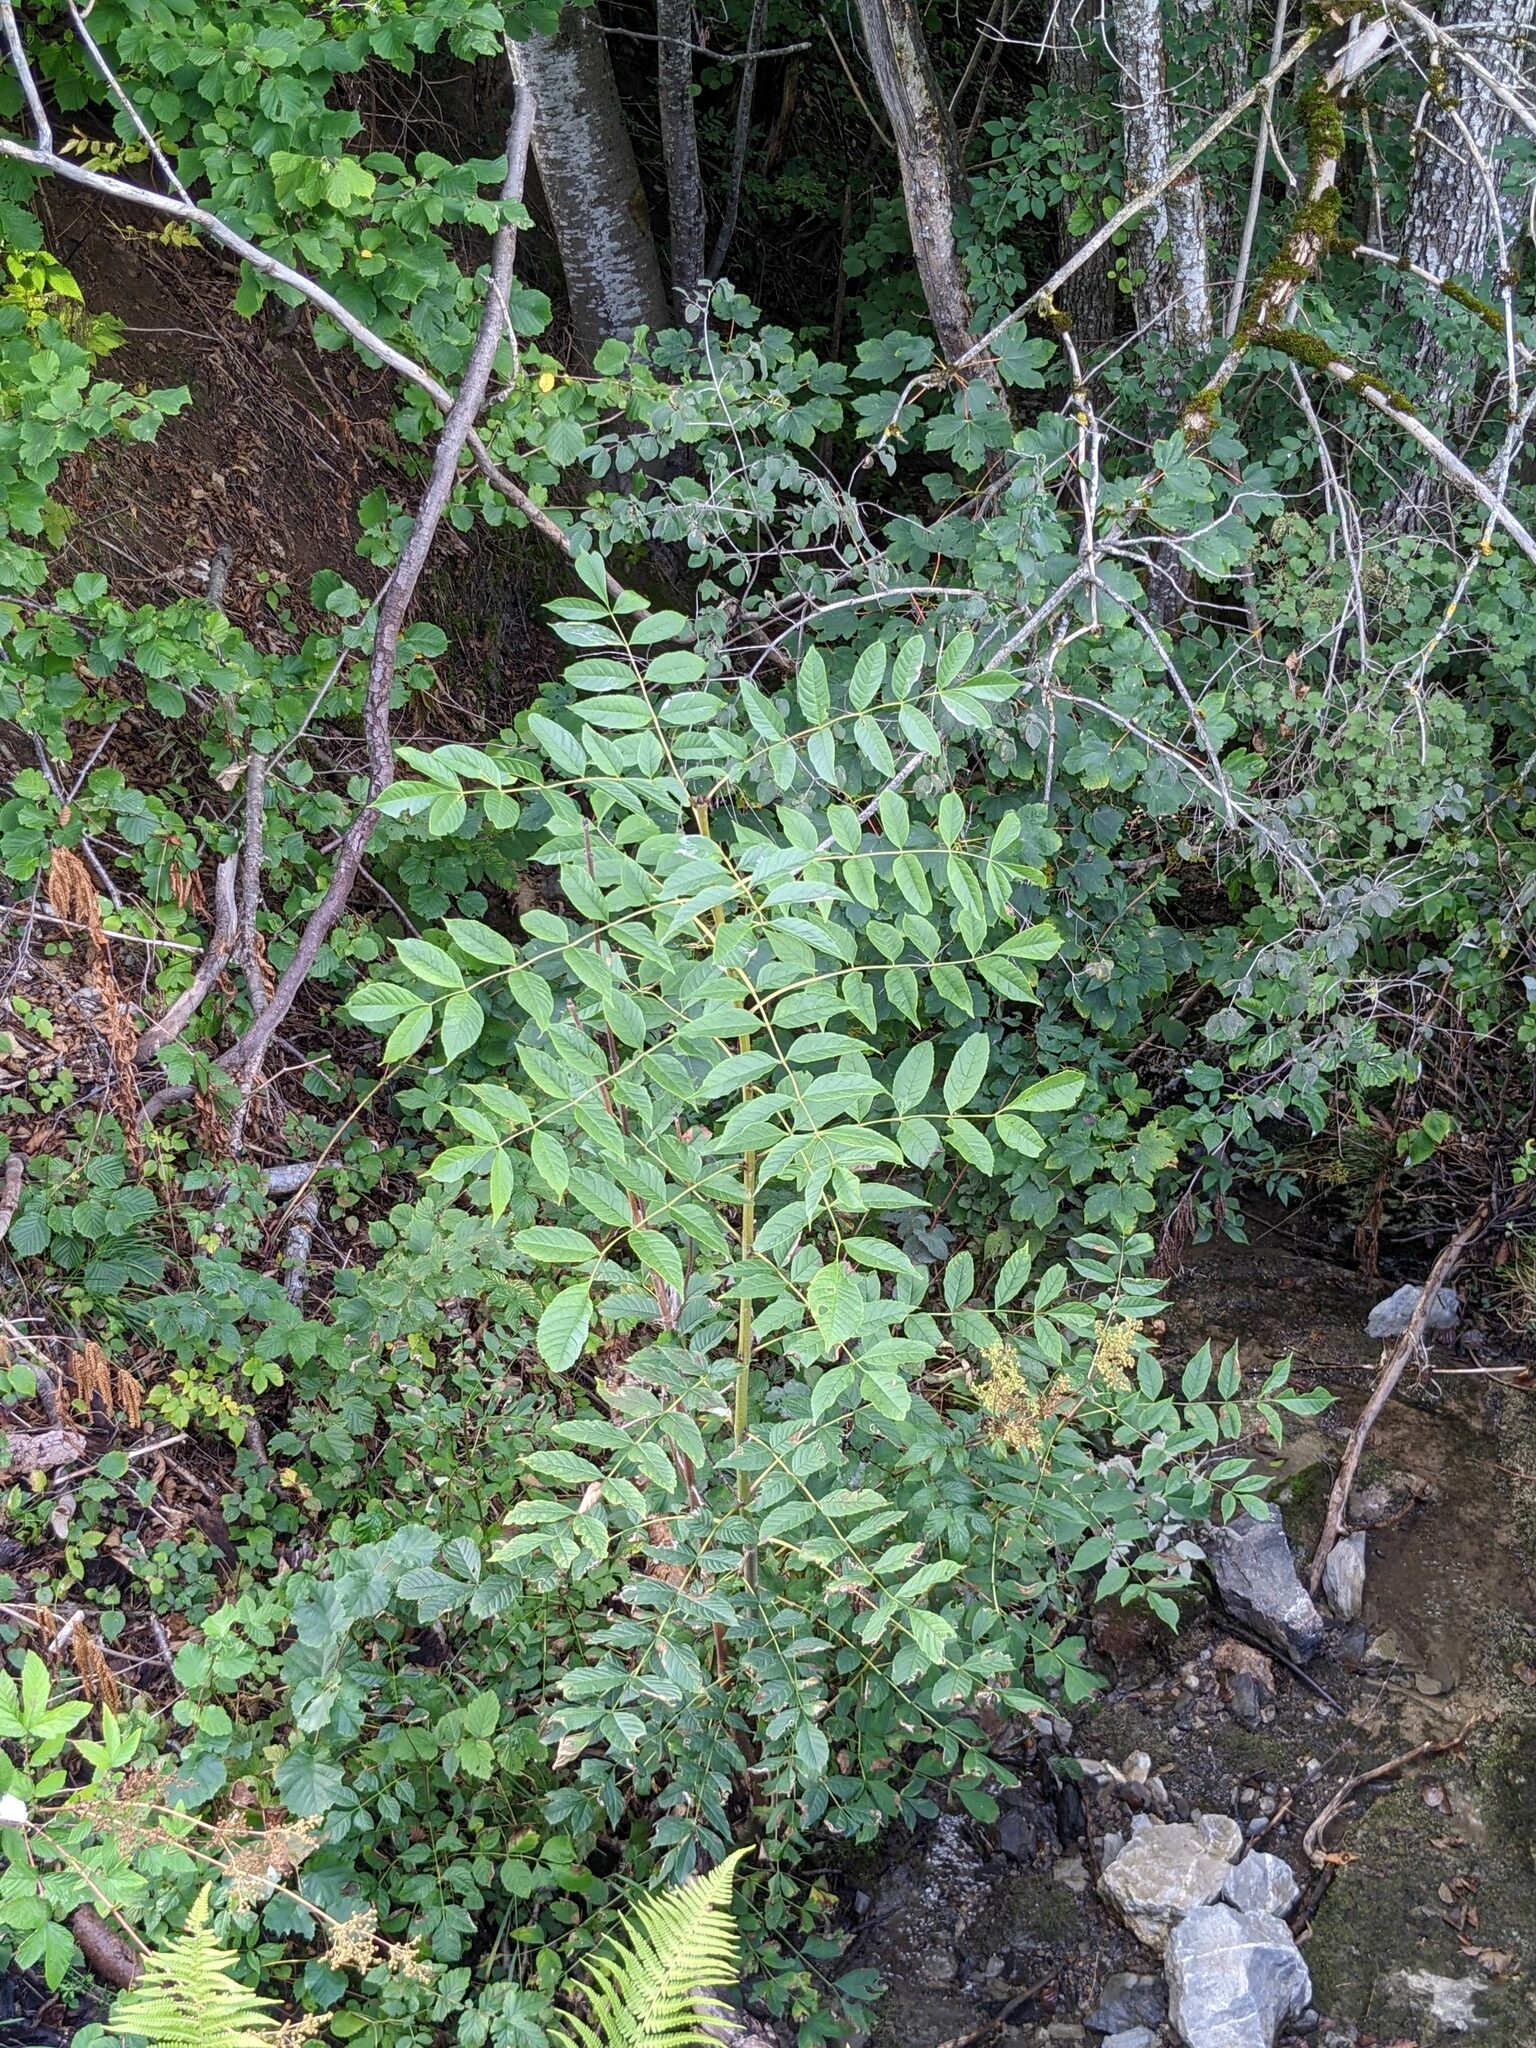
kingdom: Plantae
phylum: Tracheophyta
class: Magnoliopsida
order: Lamiales
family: Oleaceae
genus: Fraxinus
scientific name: Fraxinus excelsior
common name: European ash
